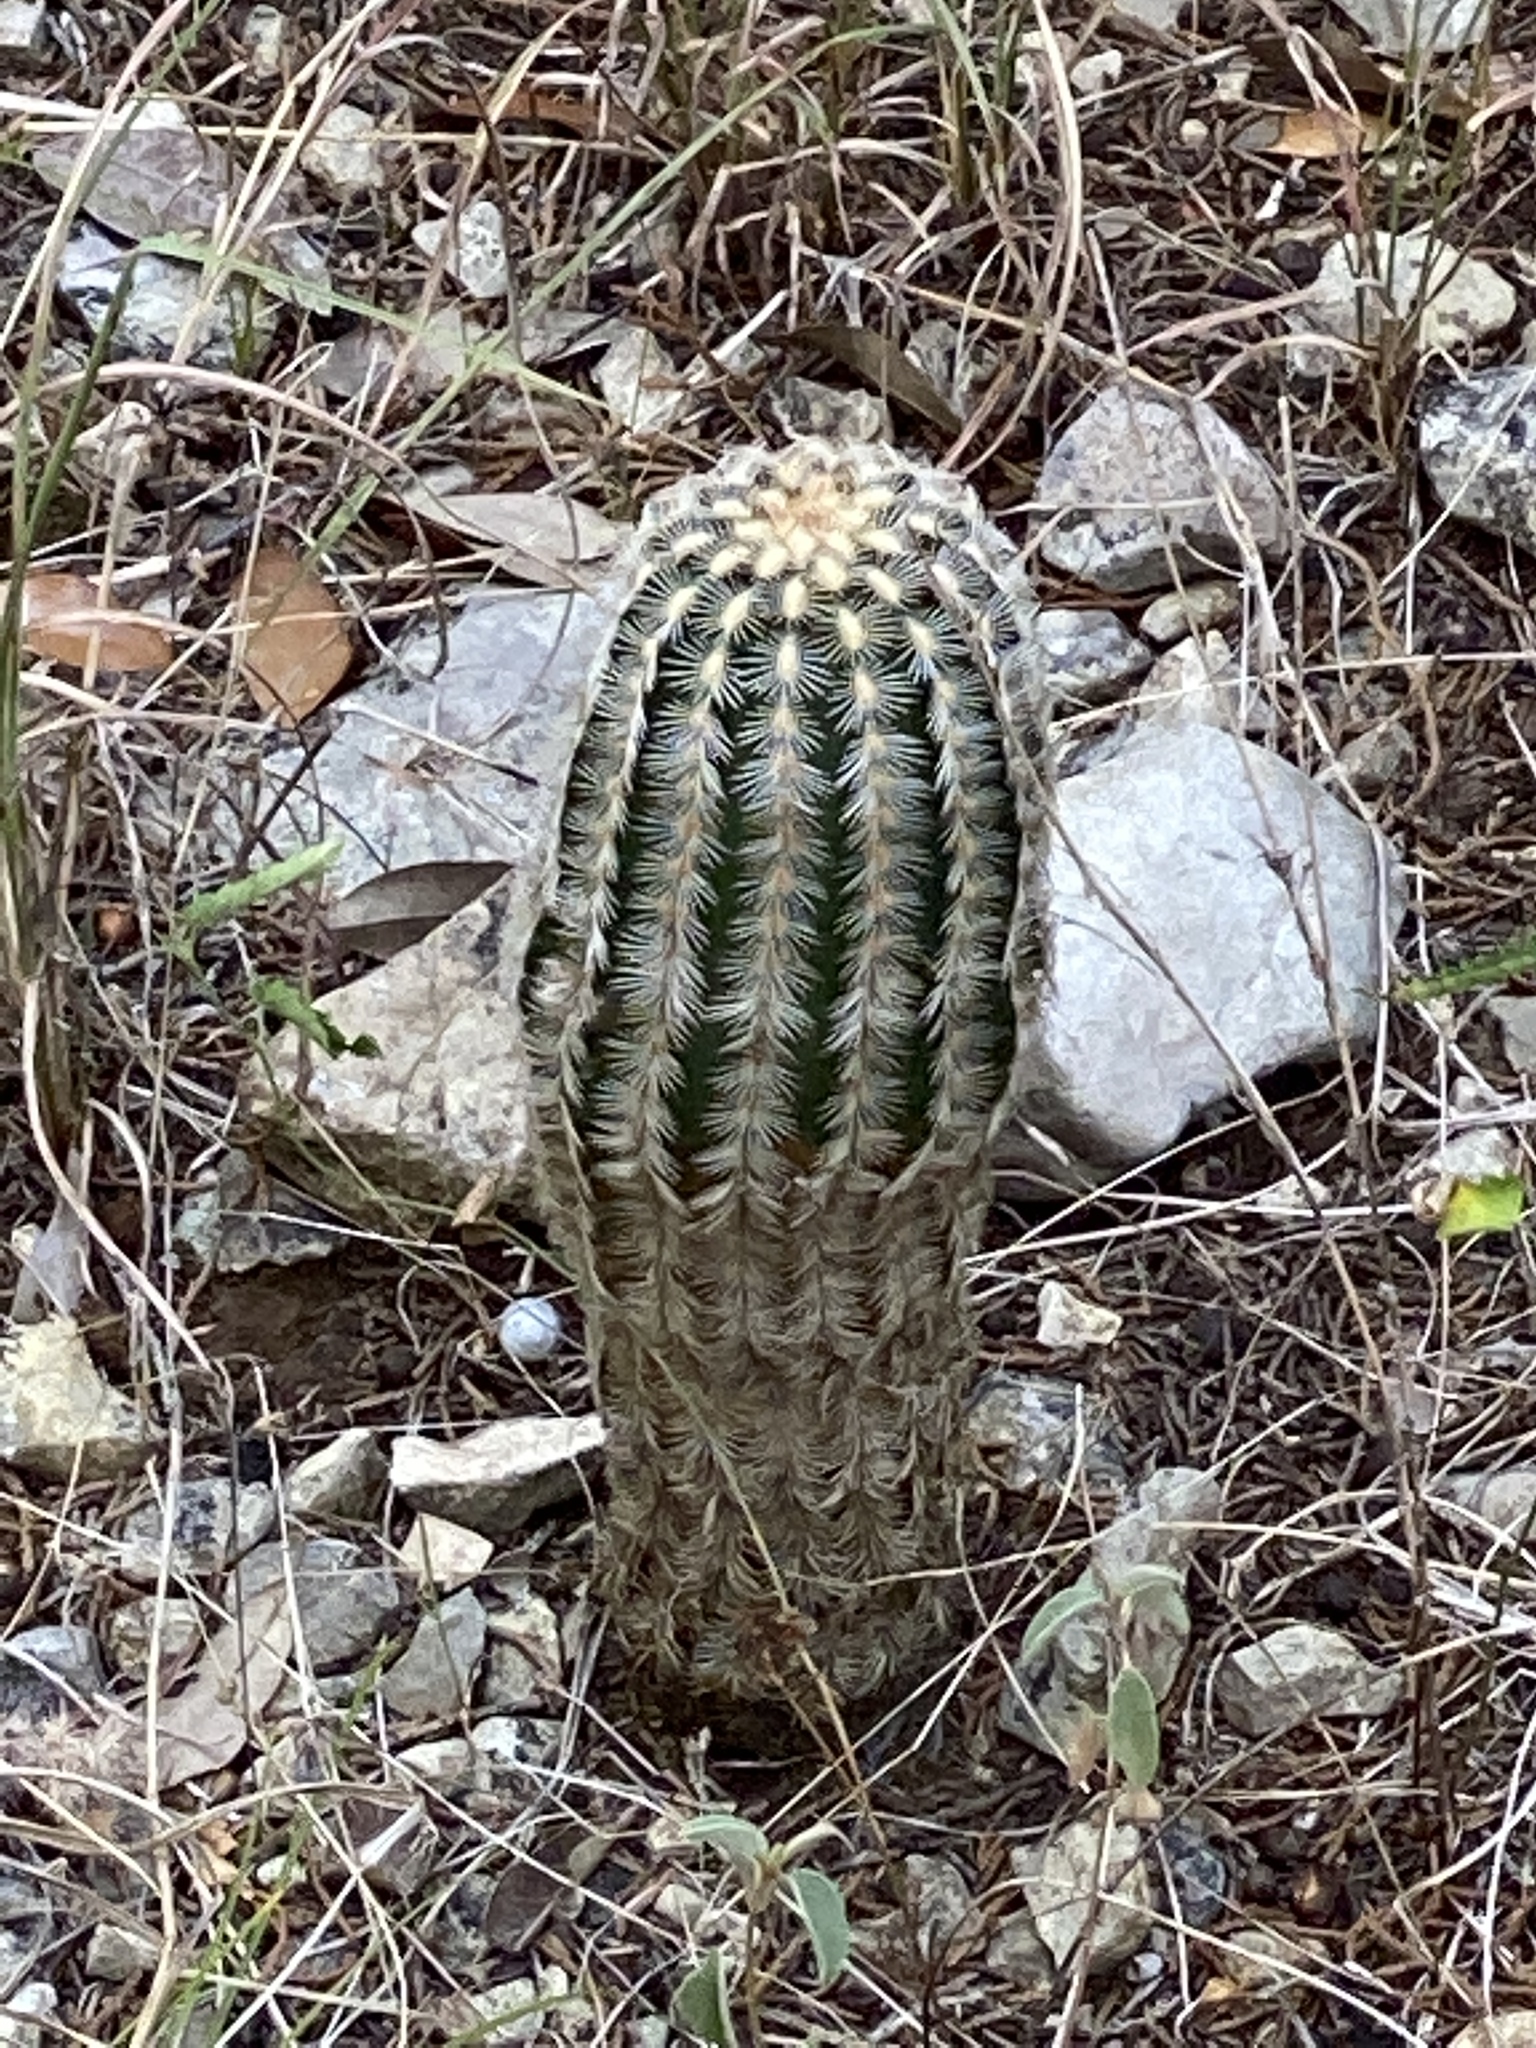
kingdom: Plantae
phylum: Tracheophyta
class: Magnoliopsida
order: Caryophyllales
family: Cactaceae
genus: Echinocereus
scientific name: Echinocereus reichenbachii
